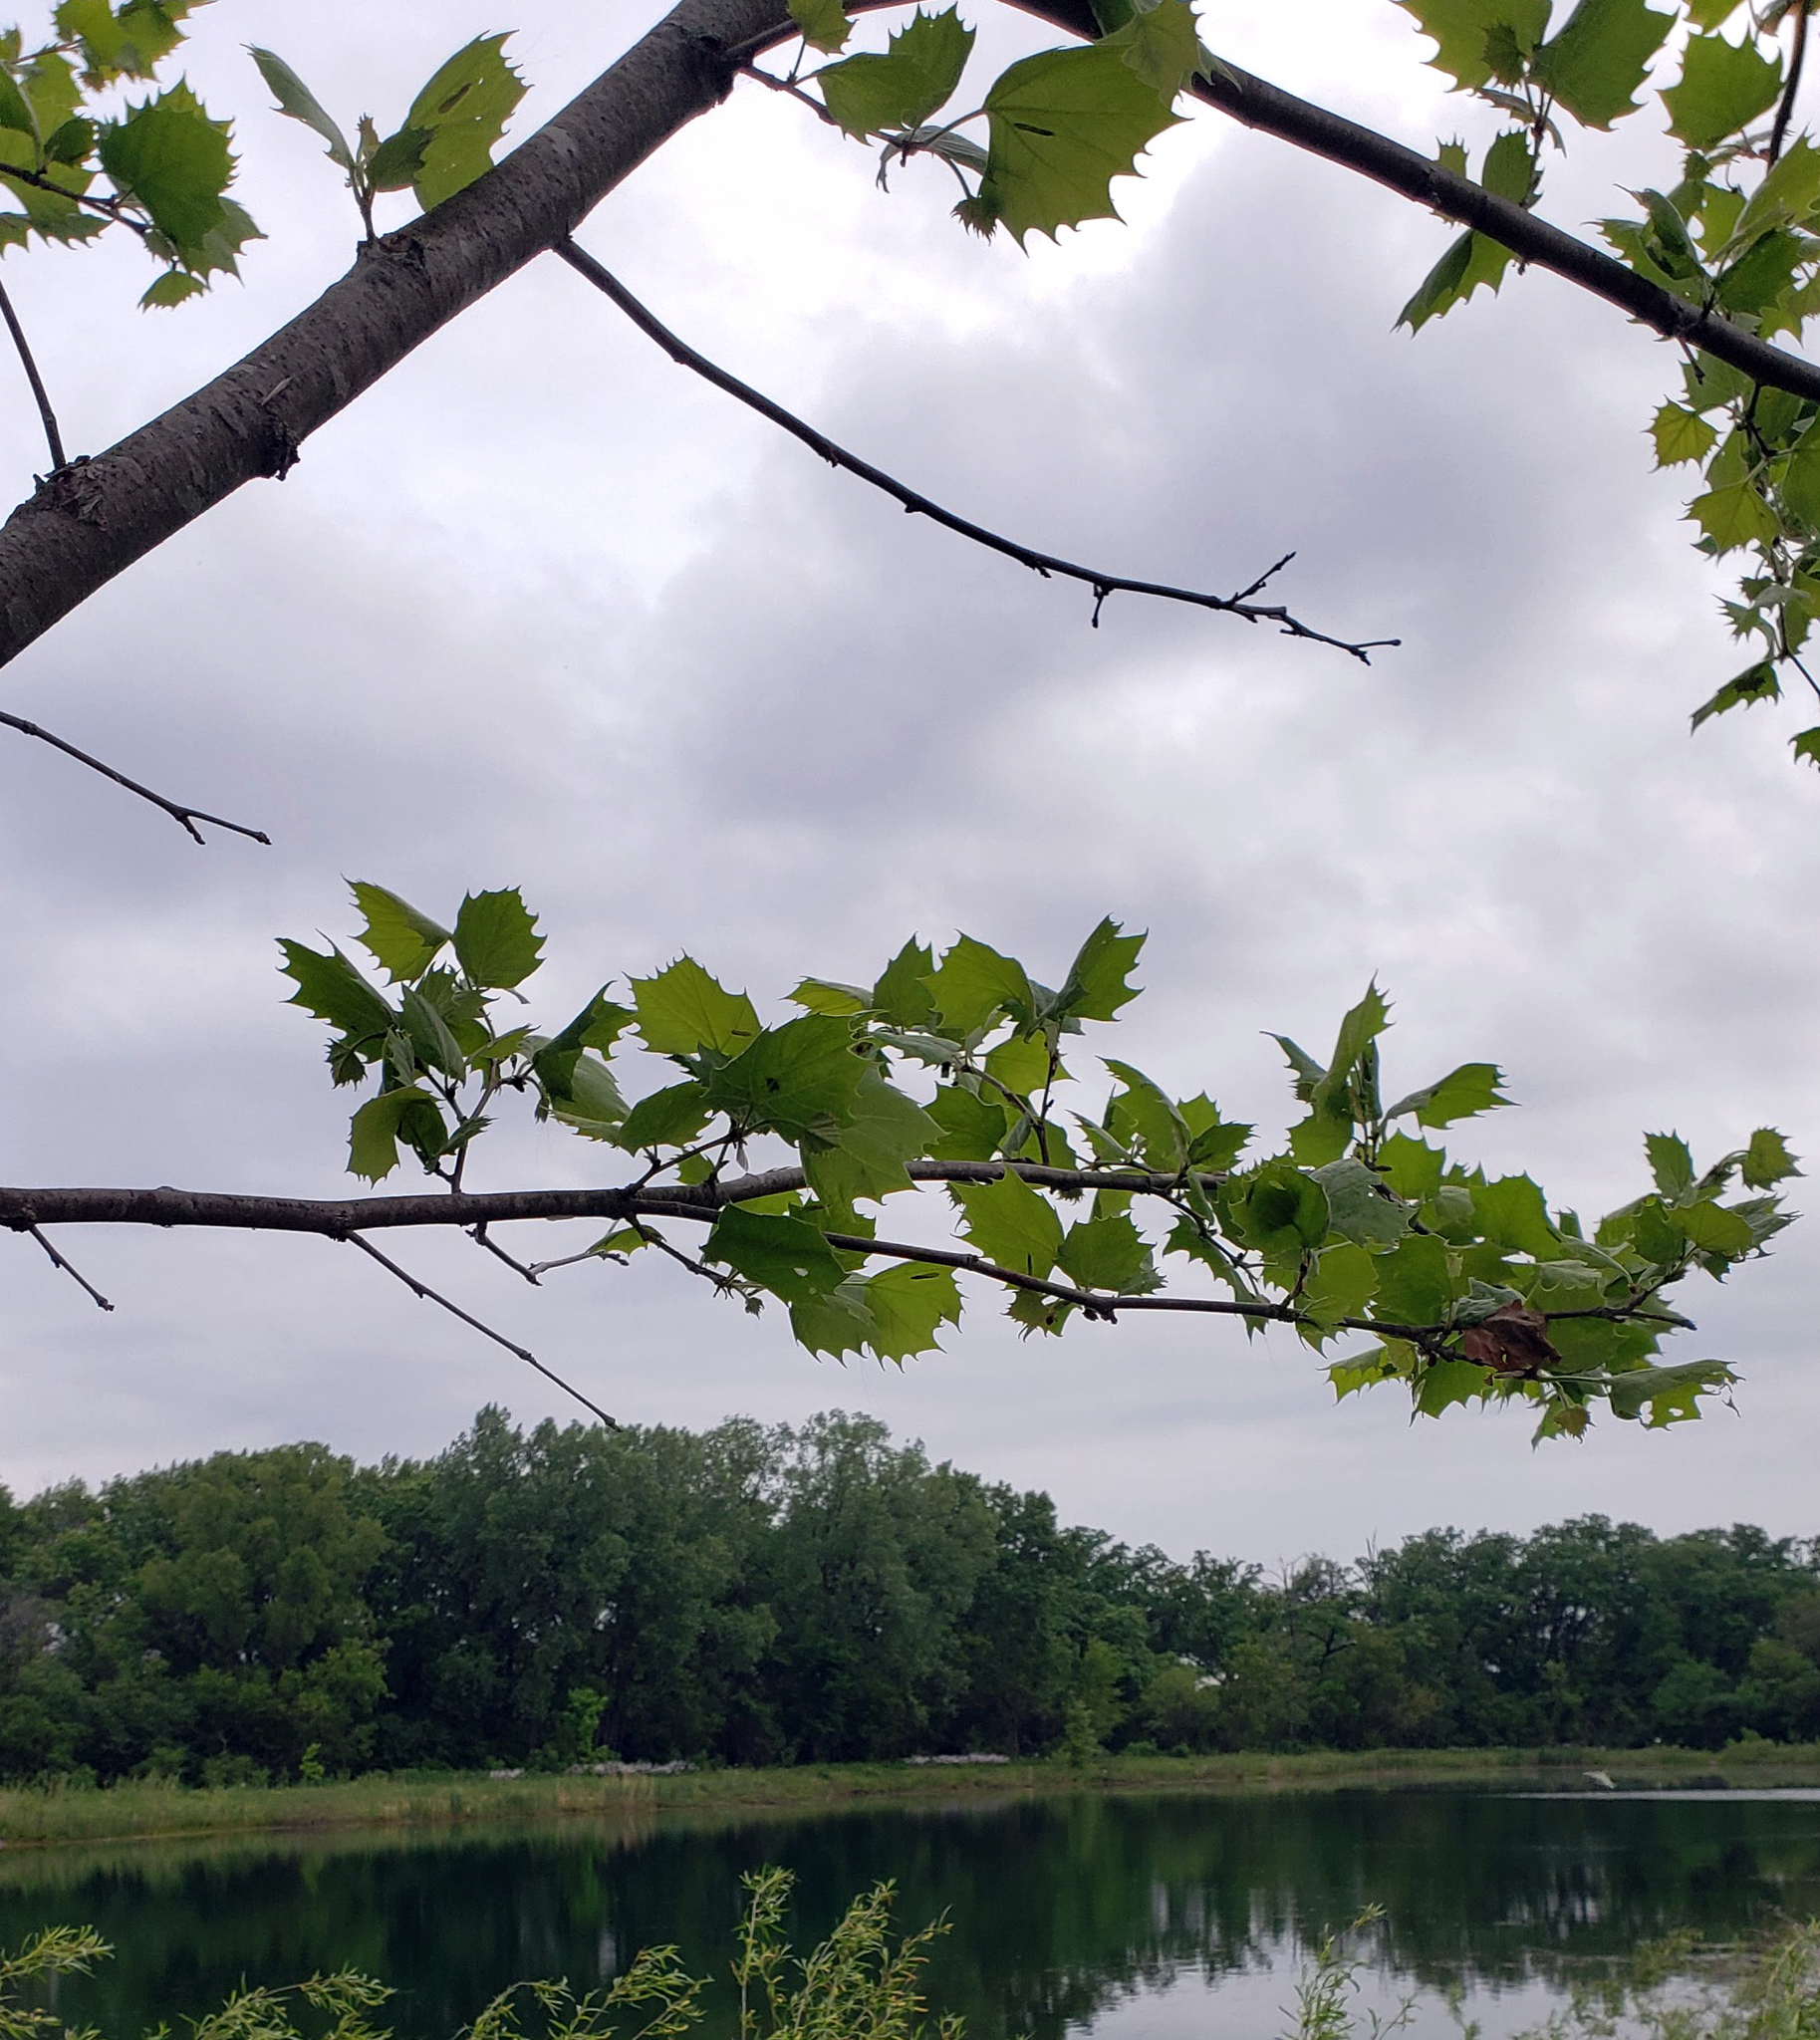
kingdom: Plantae
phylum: Tracheophyta
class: Magnoliopsida
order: Proteales
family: Platanaceae
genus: Platanus
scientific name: Platanus occidentalis
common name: American sycamore
